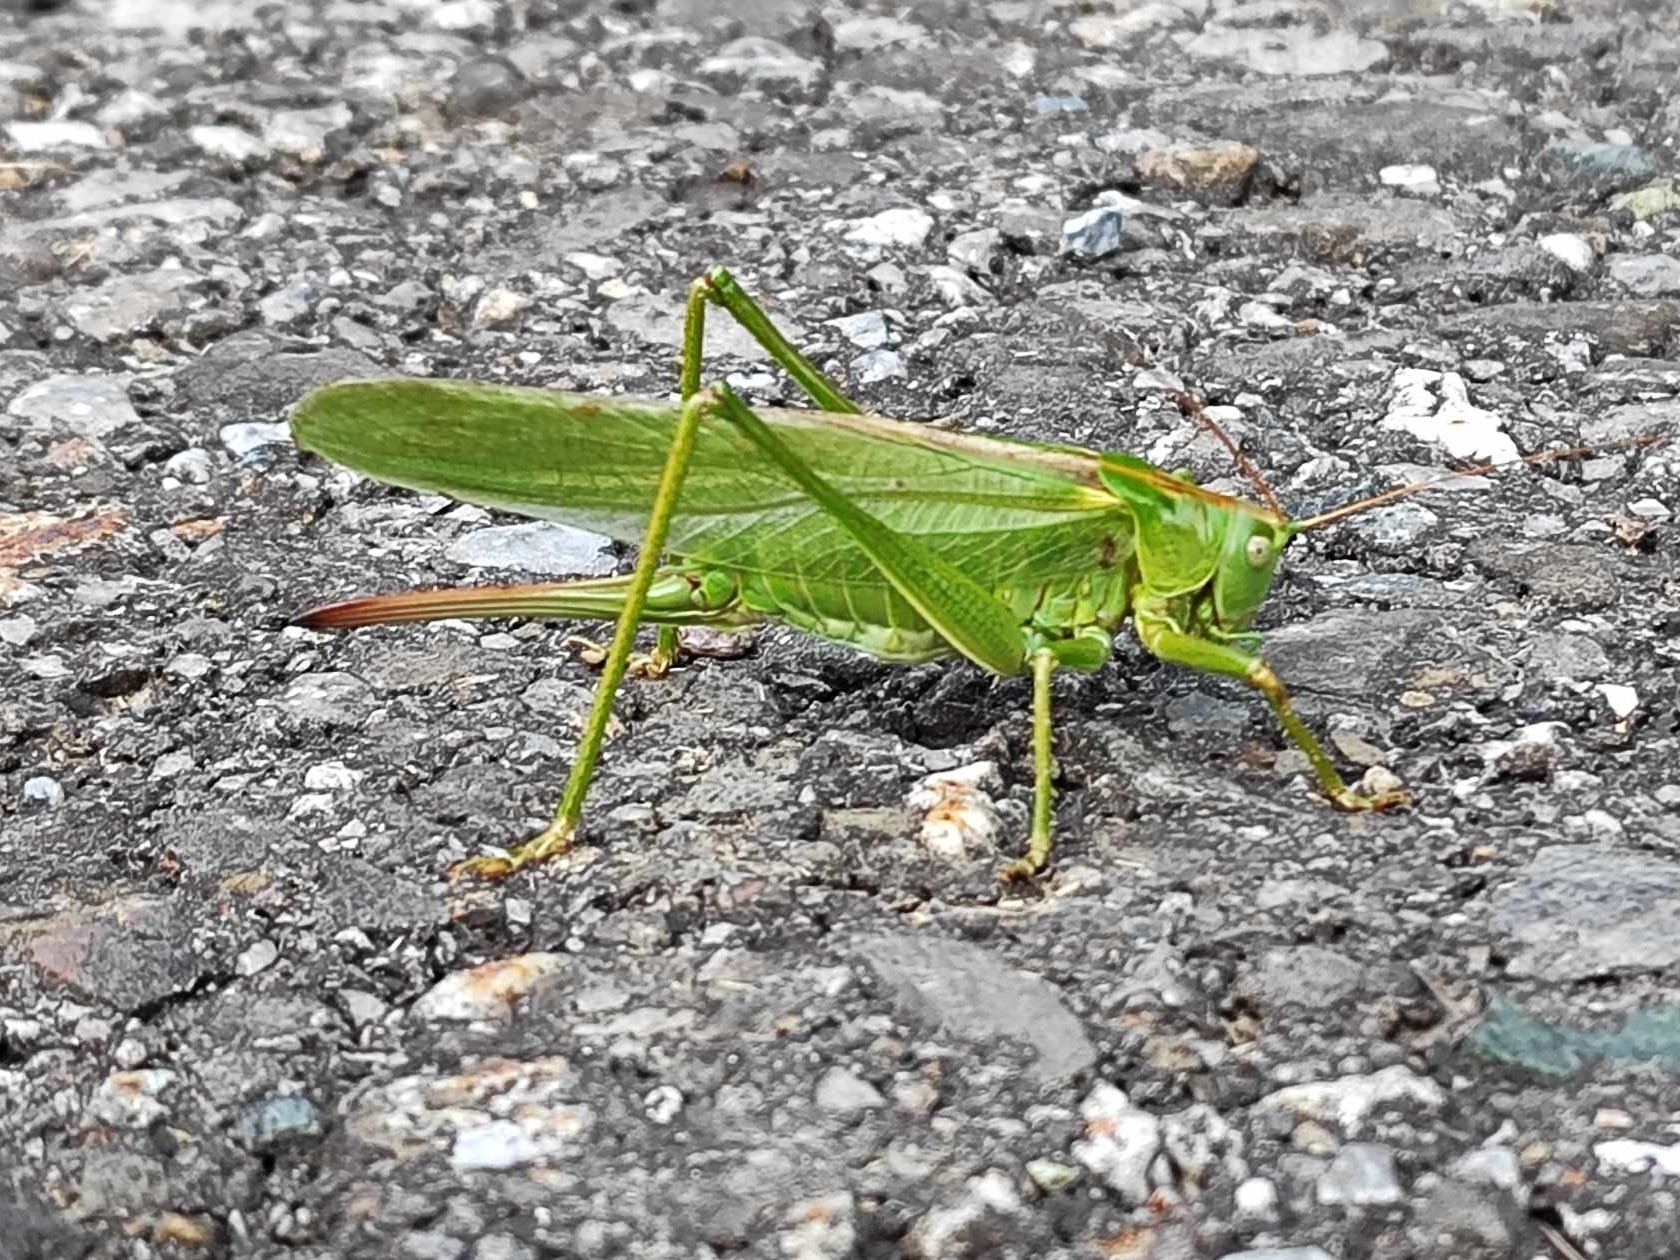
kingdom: Animalia
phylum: Arthropoda
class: Insecta
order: Orthoptera
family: Tettigoniidae
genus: Tettigonia
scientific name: Tettigonia viridissima
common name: Great green bush-cricket
